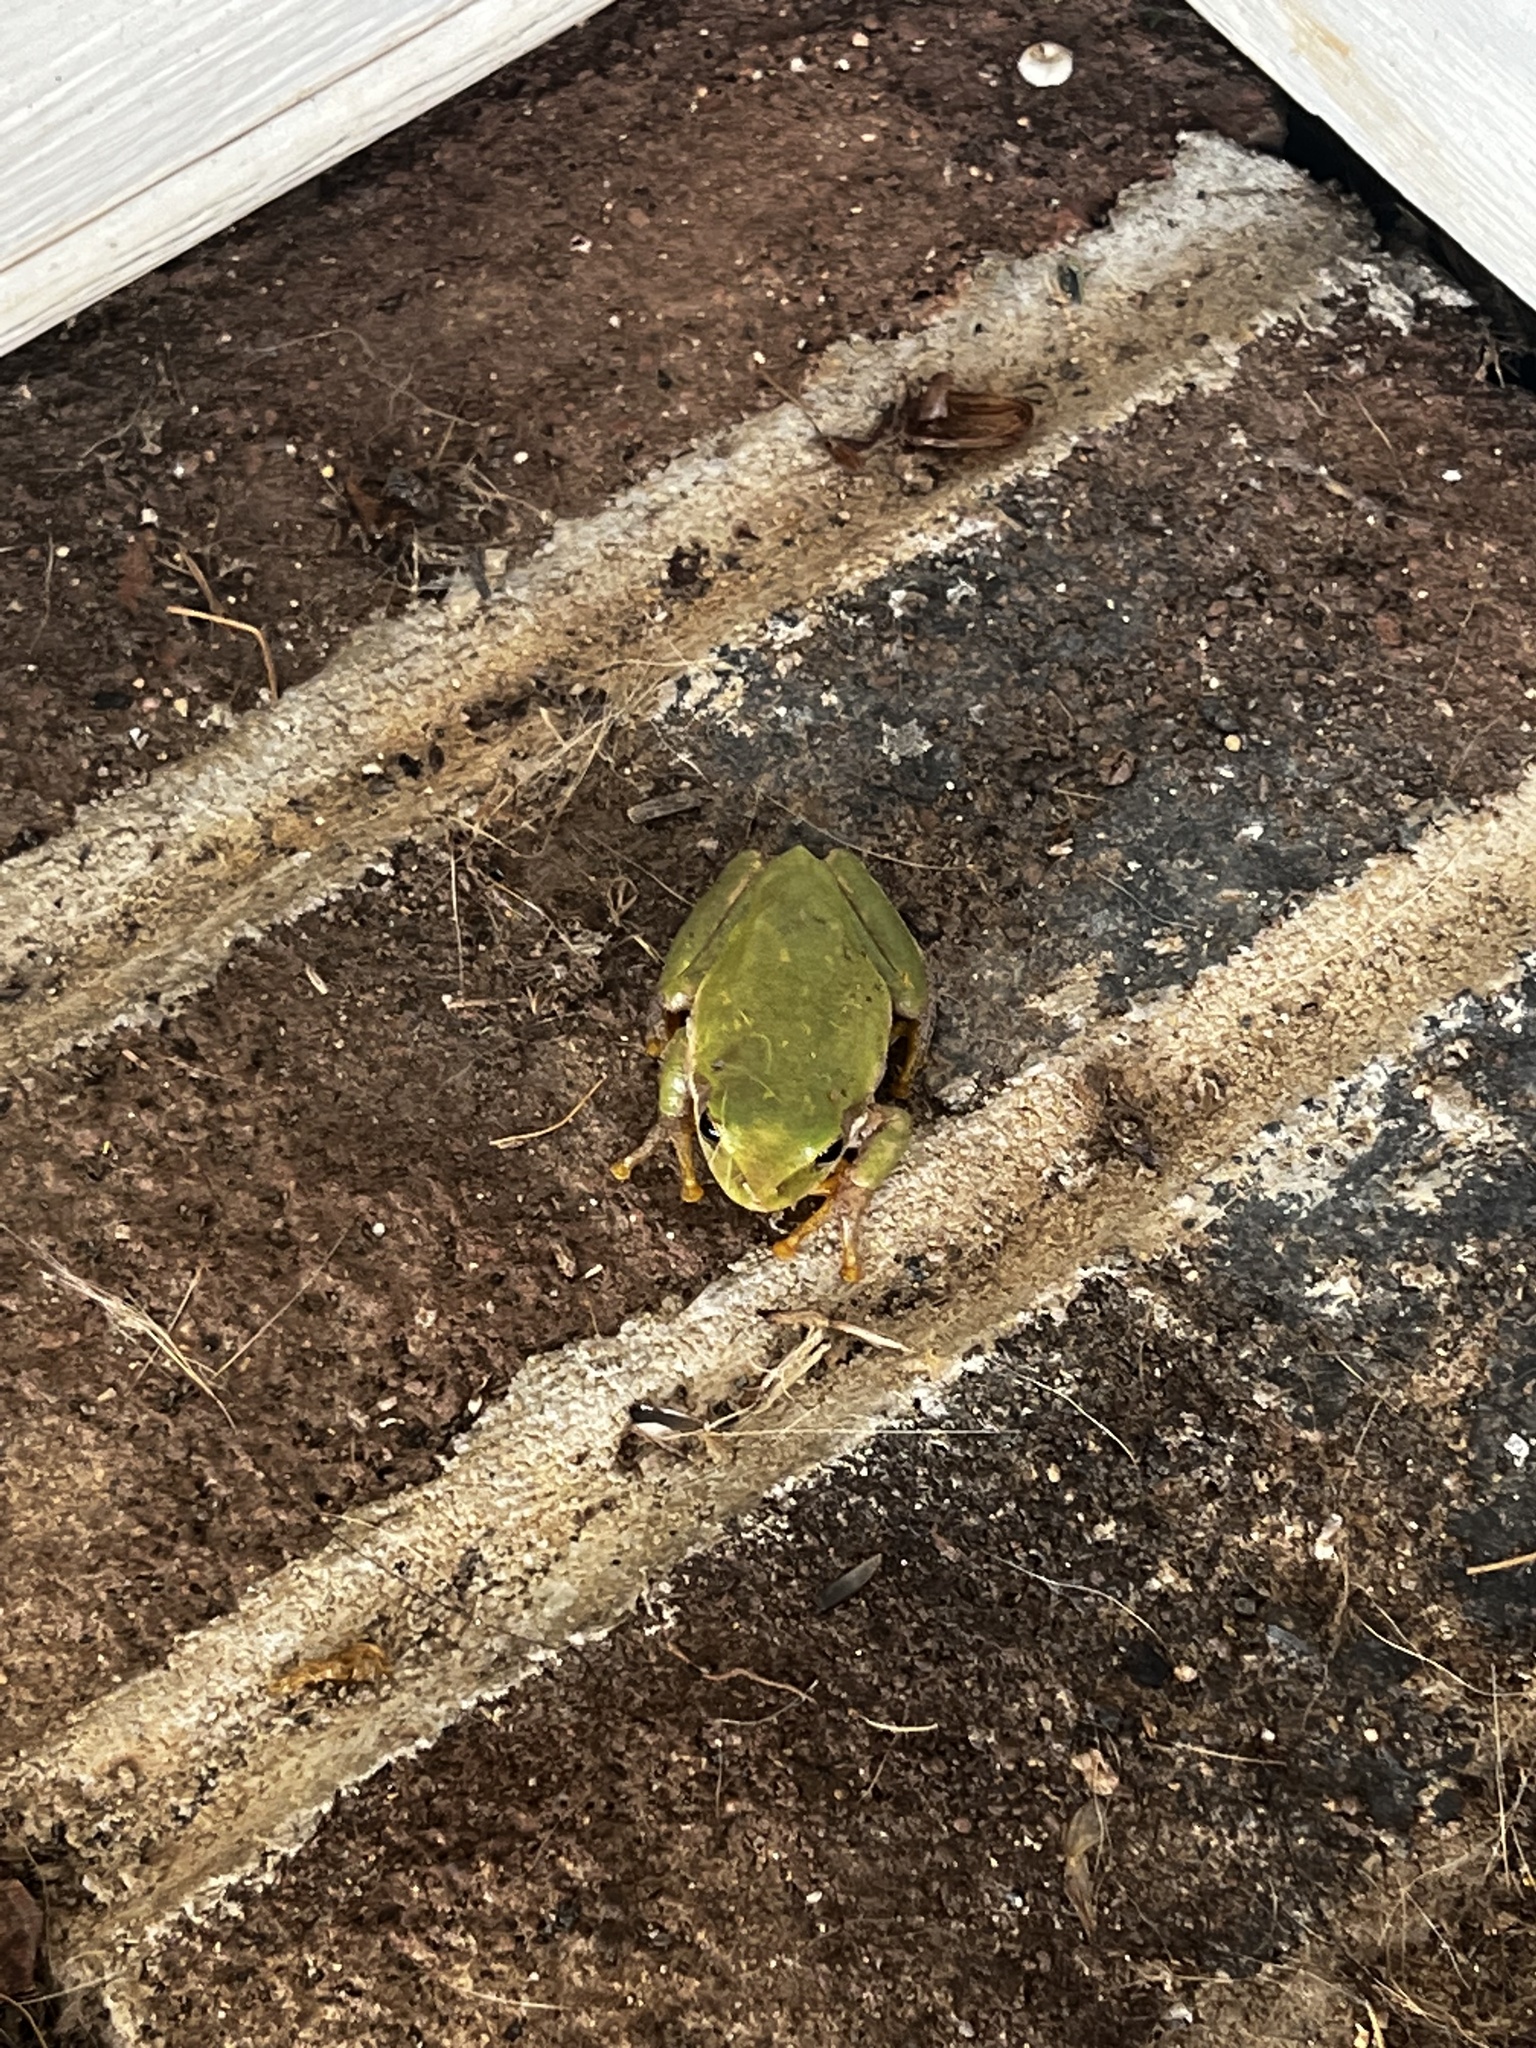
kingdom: Animalia
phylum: Chordata
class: Amphibia
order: Anura
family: Hylidae
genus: Dryophytes
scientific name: Dryophytes squirellus
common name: Squirrel treefrog
